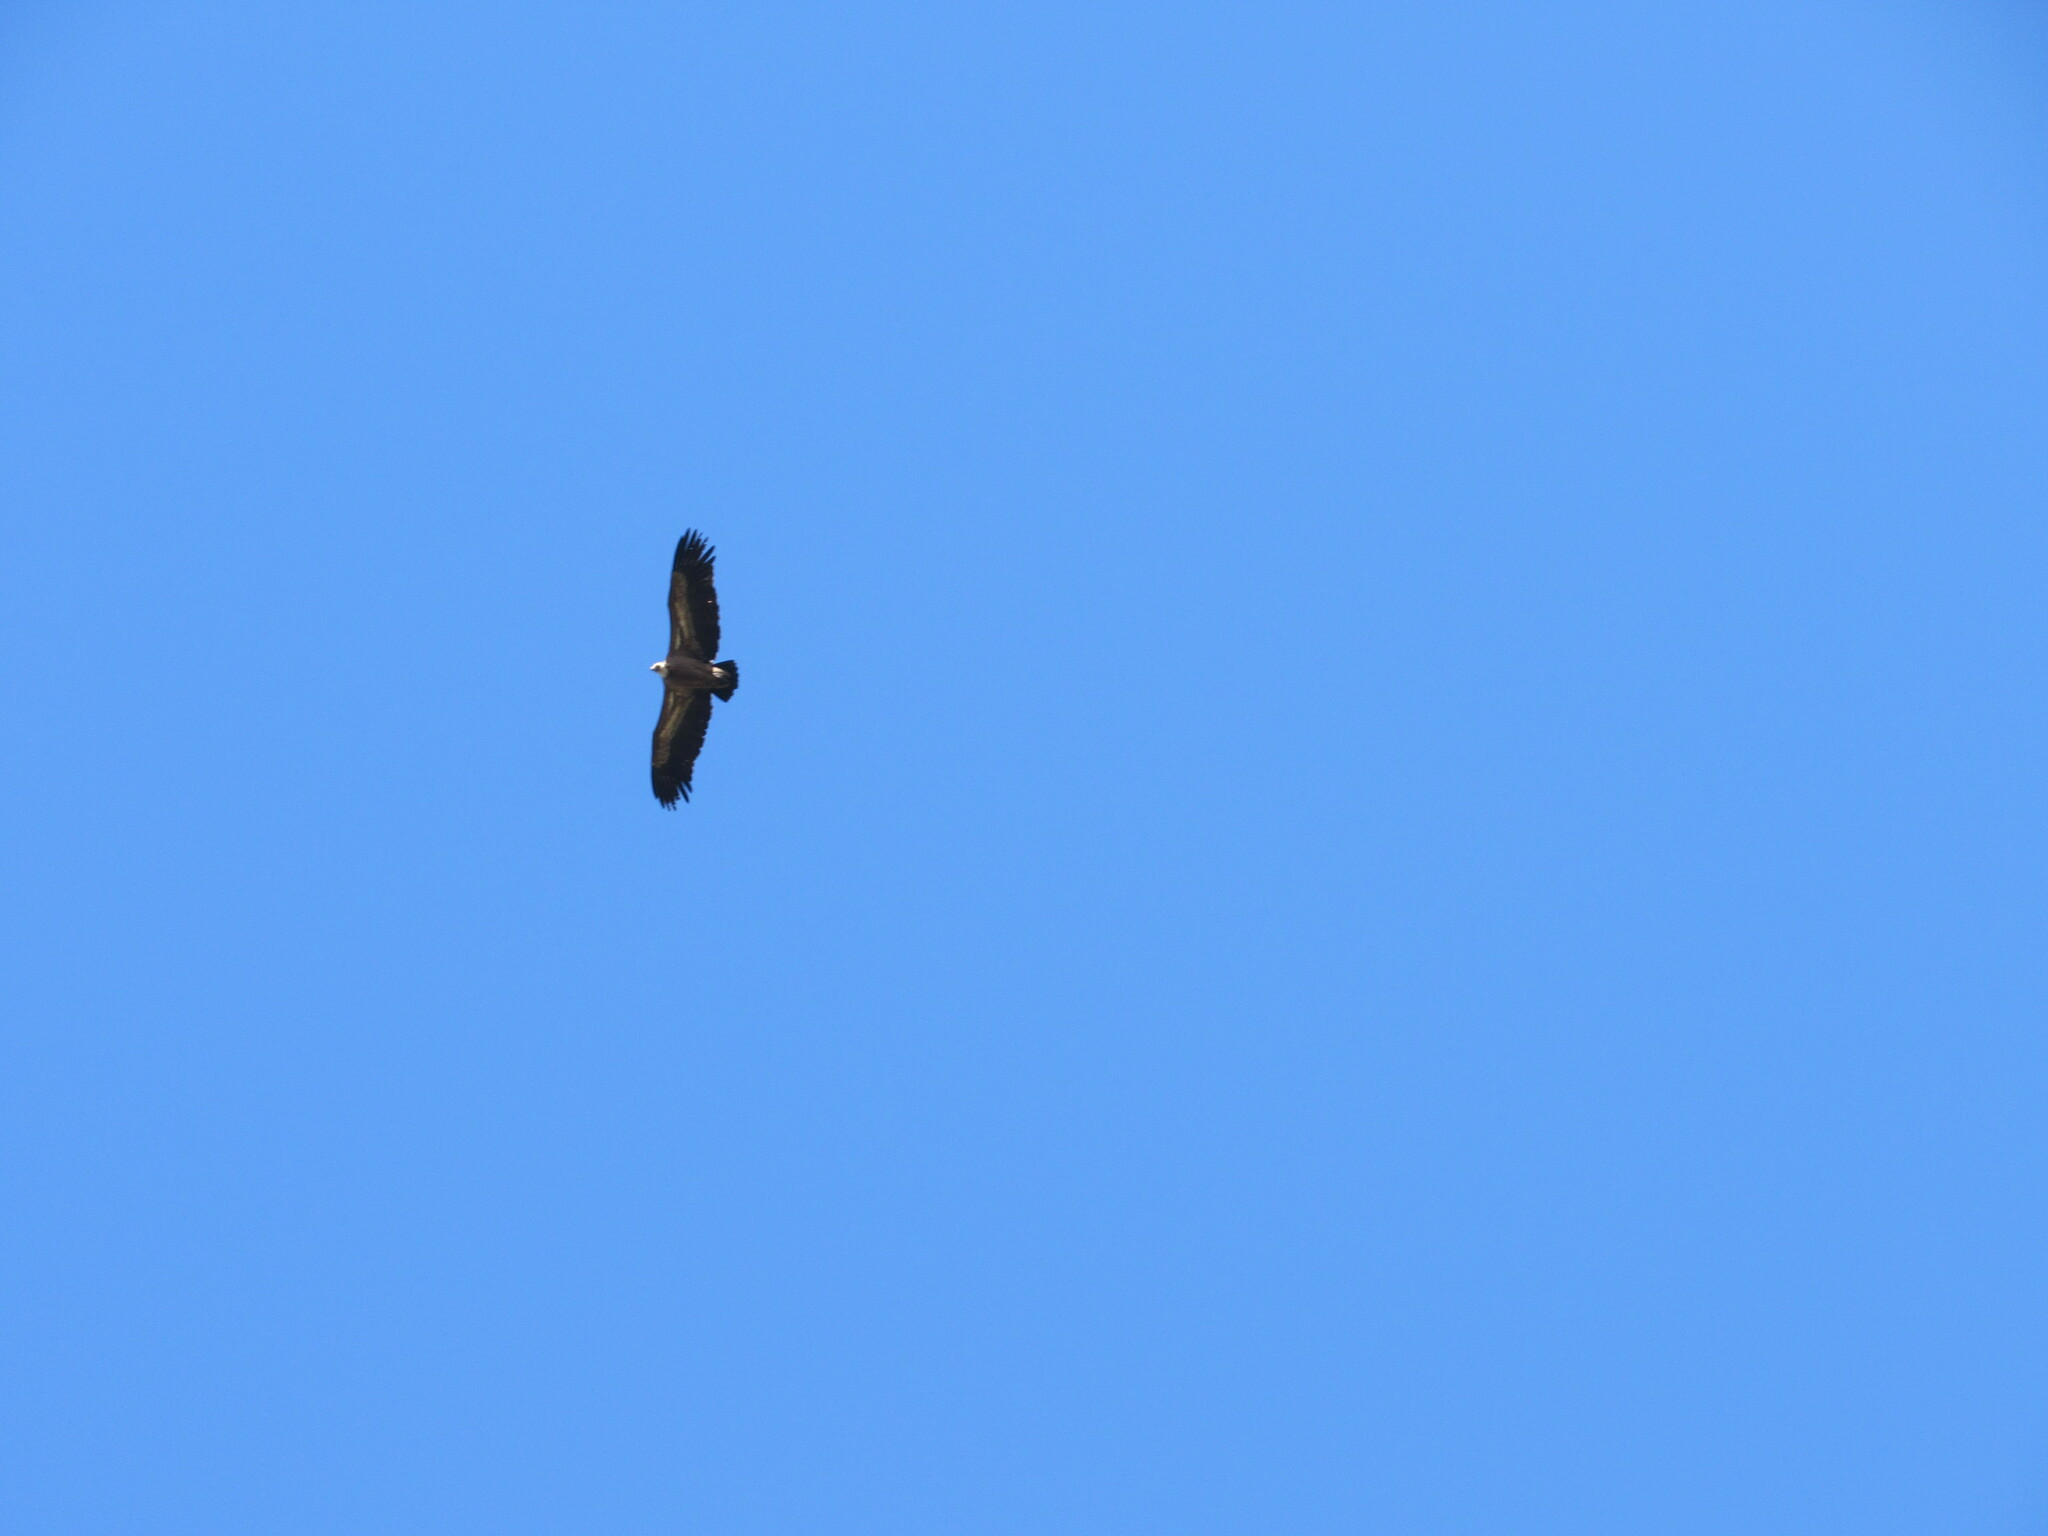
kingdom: Animalia
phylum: Chordata
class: Aves
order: Accipitriformes
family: Accipitridae
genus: Gyps
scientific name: Gyps fulvus
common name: Griffon vulture
